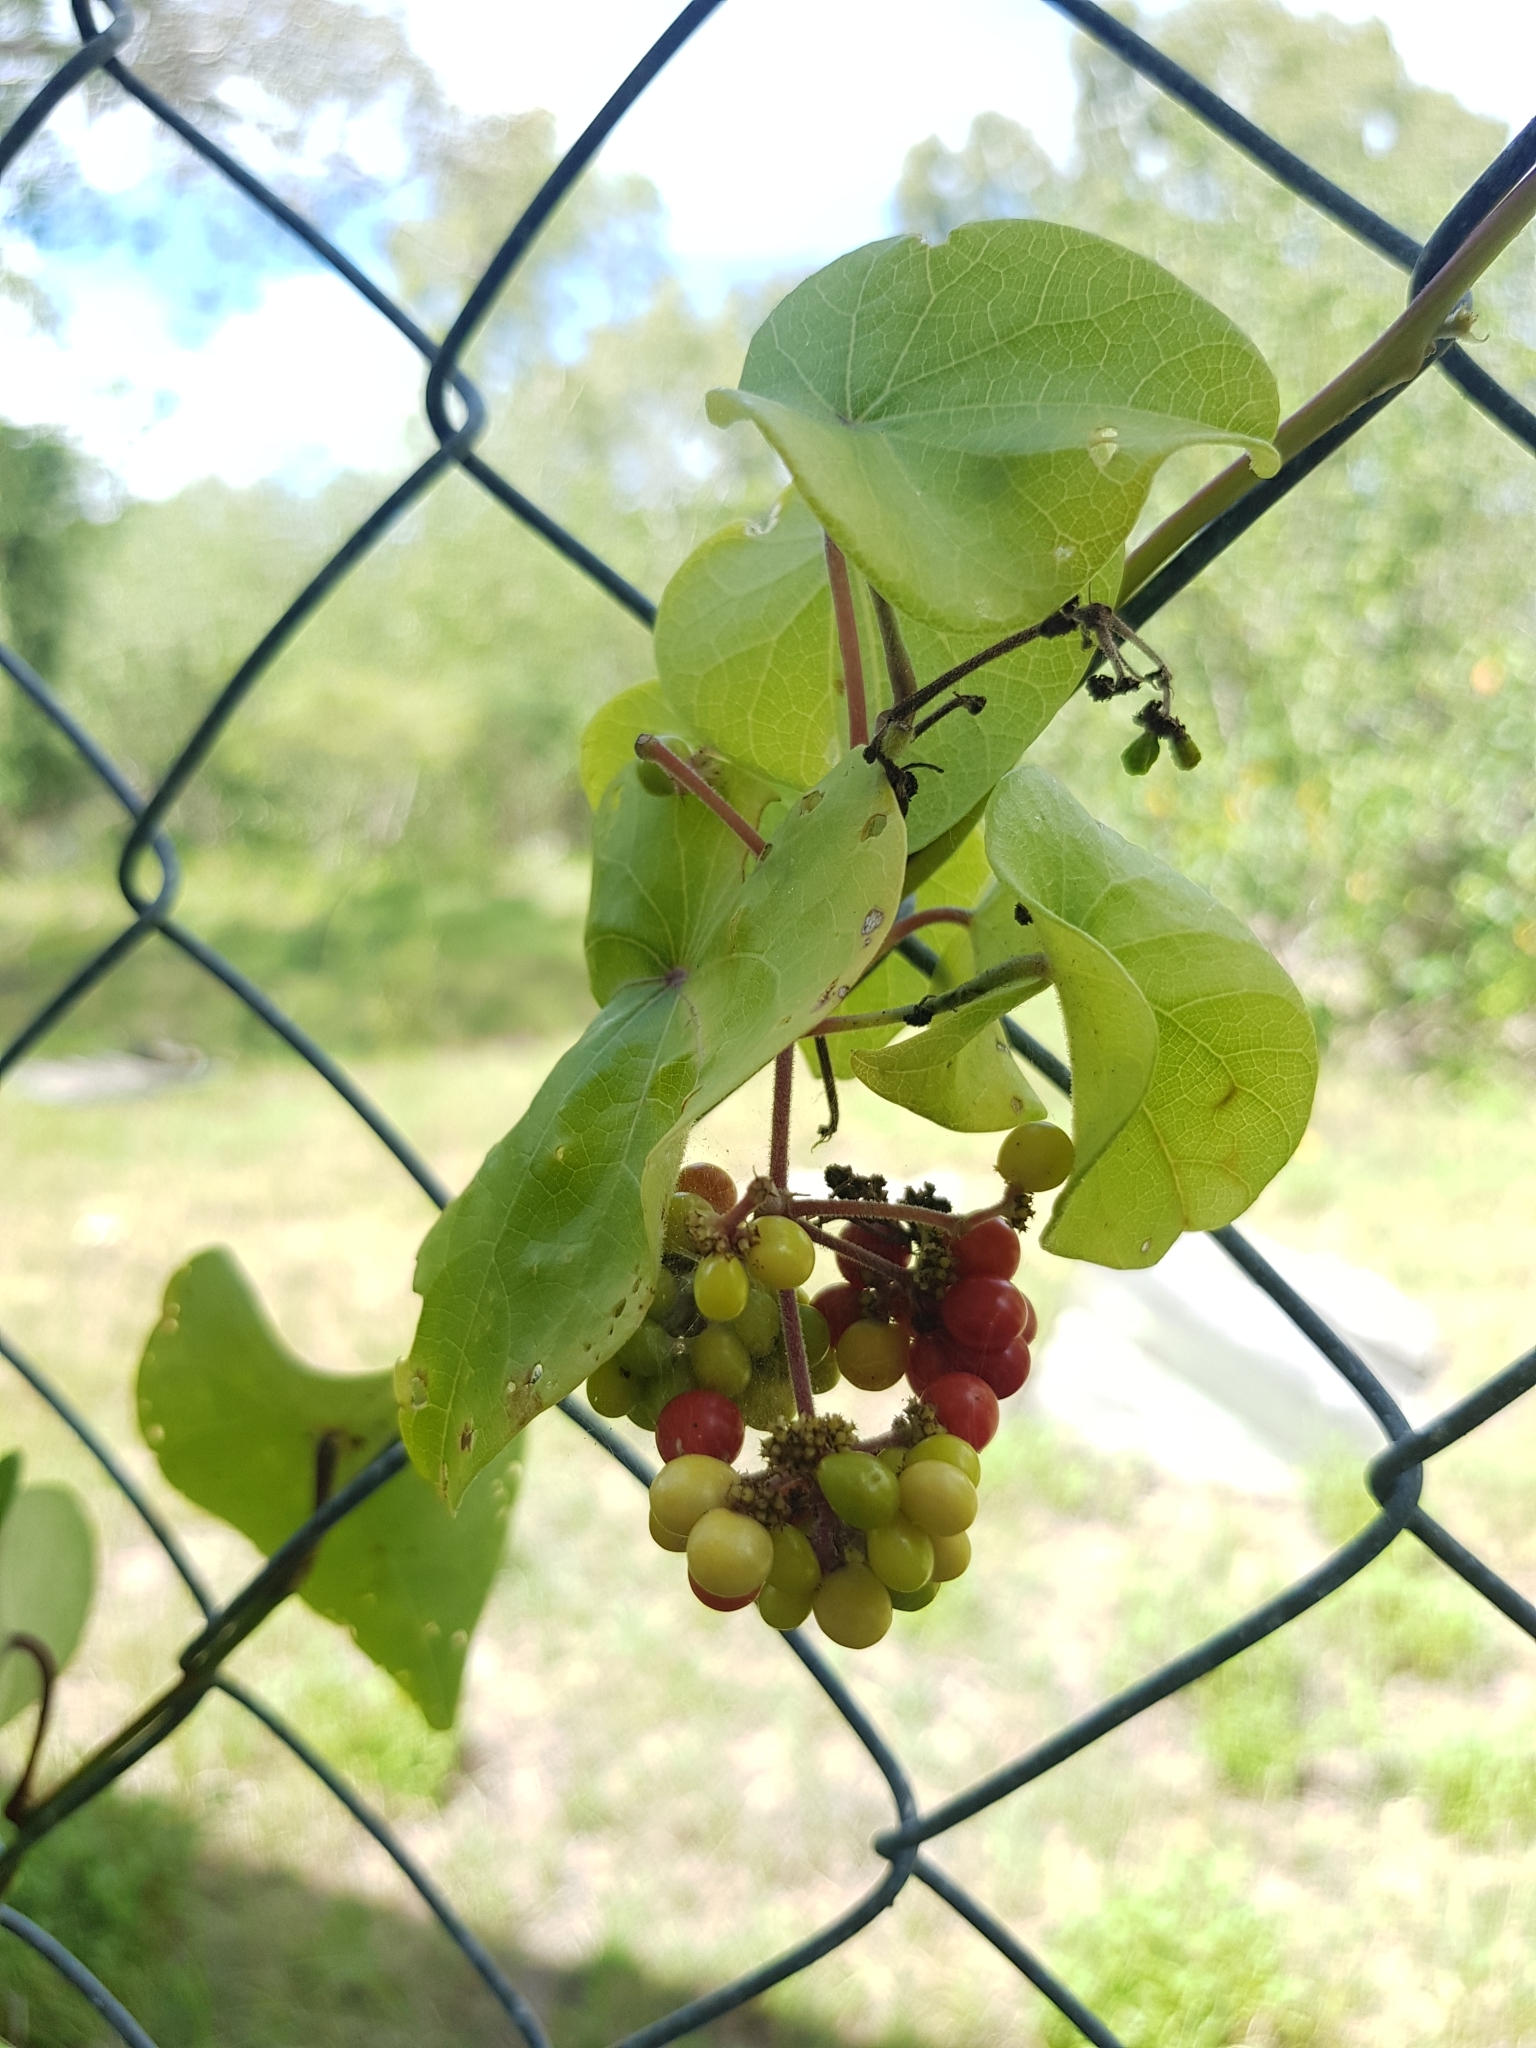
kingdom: Plantae
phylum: Tracheophyta
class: Magnoliopsida
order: Ranunculales
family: Menispermaceae
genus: Stephania
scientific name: Stephania japonica
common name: Snake vine
